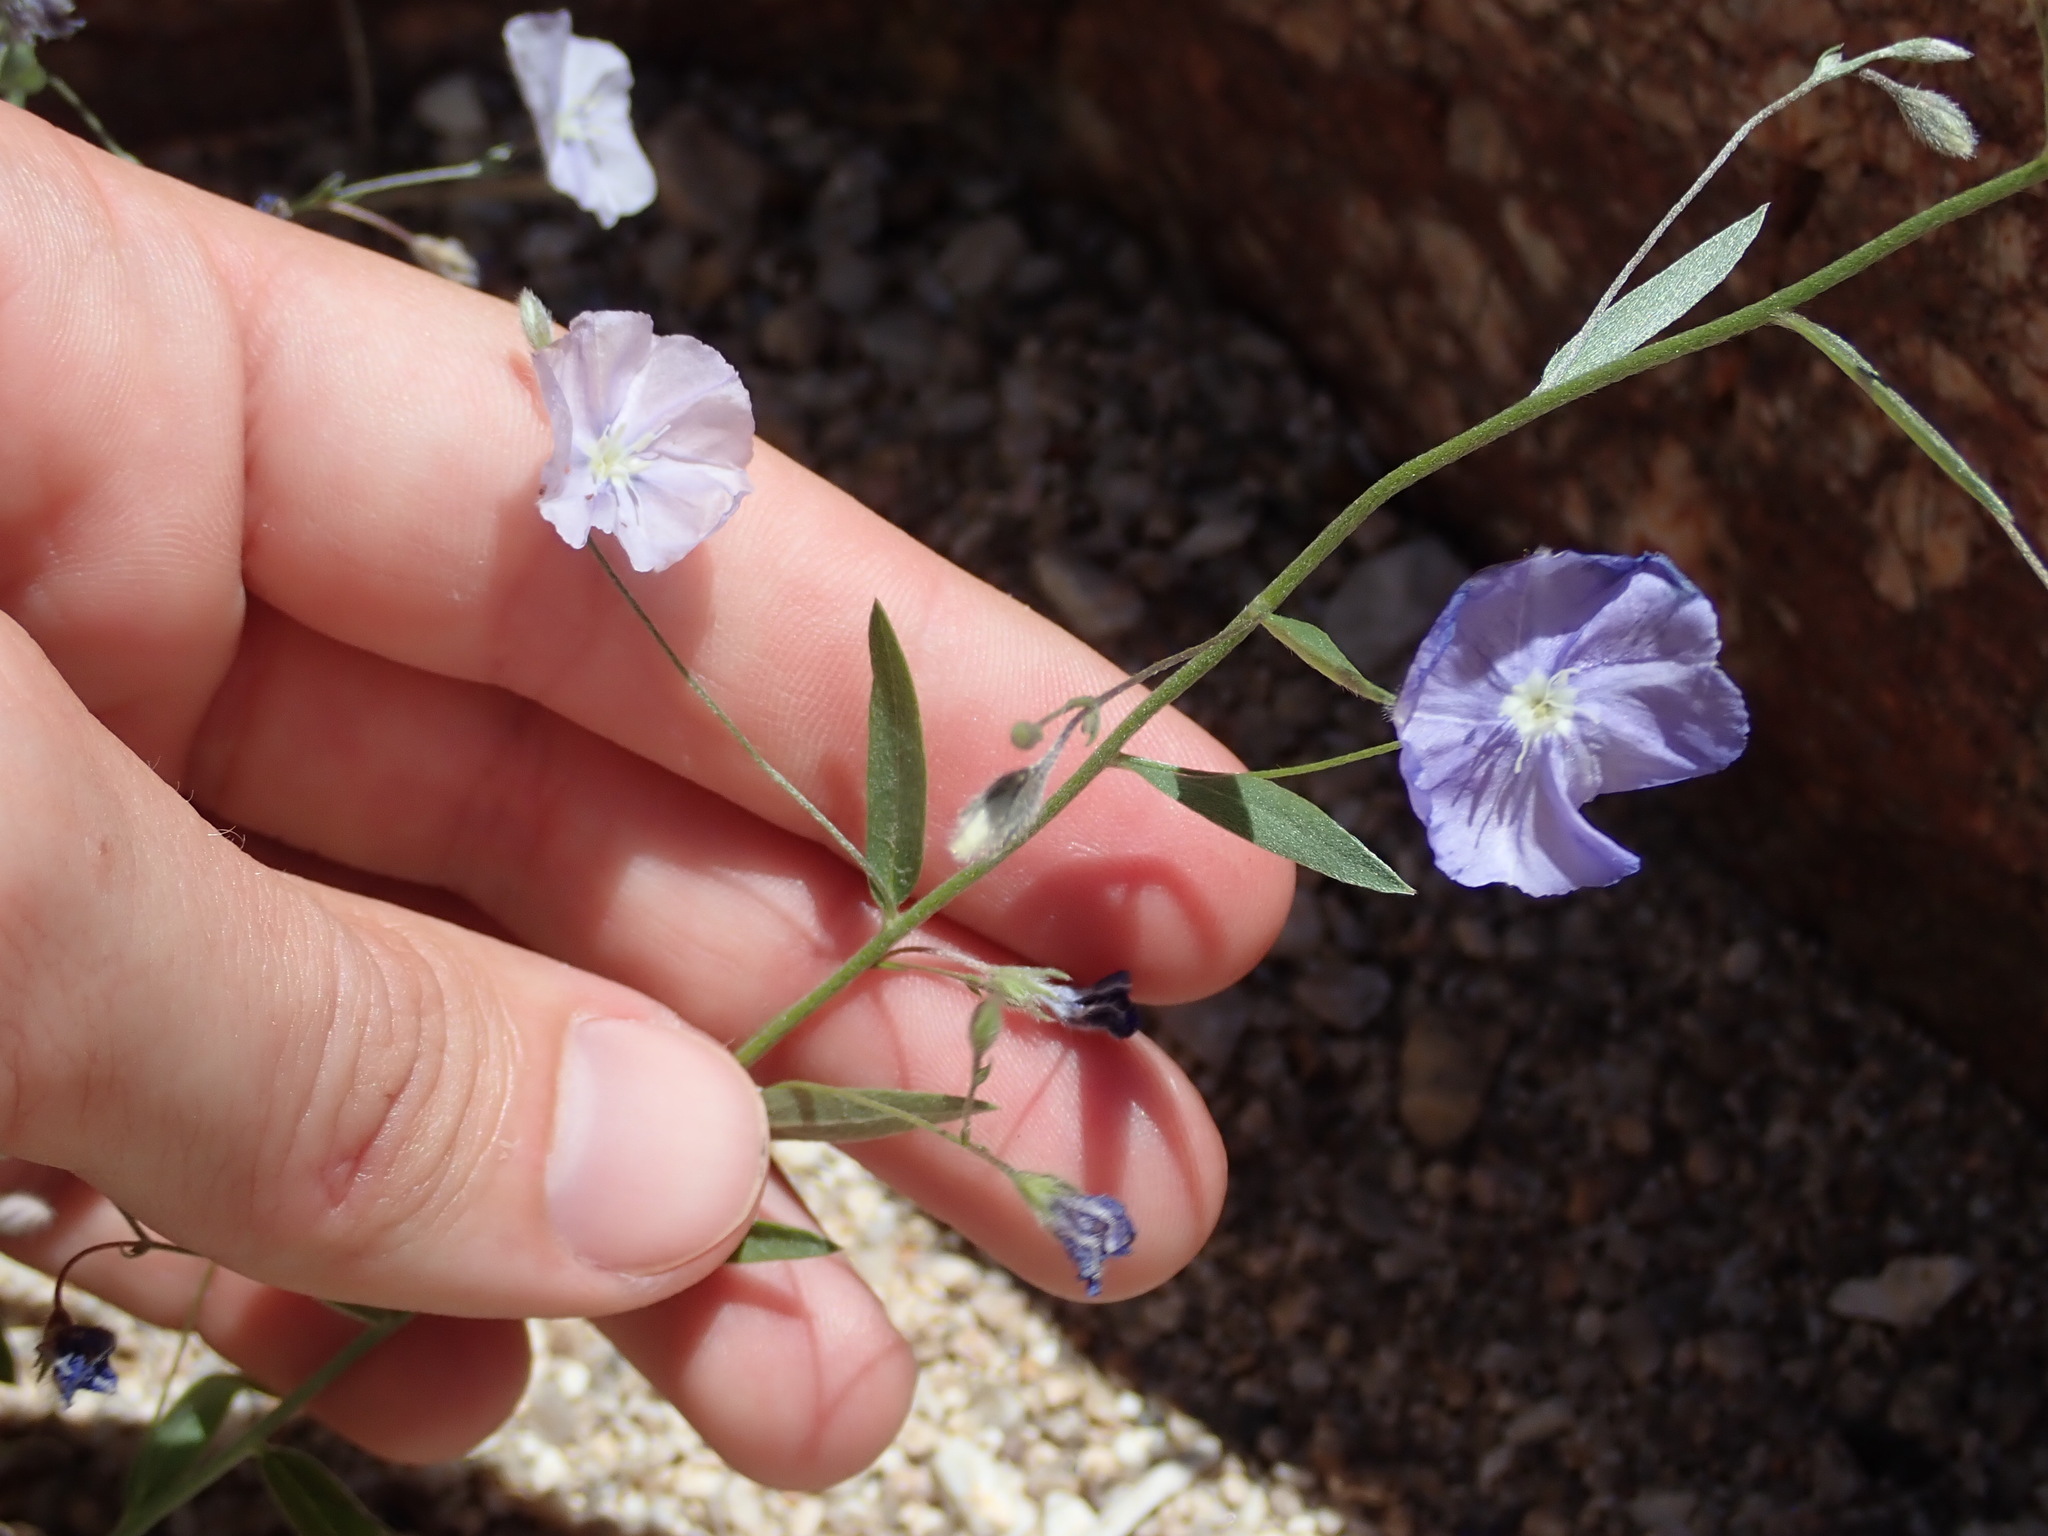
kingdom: Plantae
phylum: Tracheophyta
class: Magnoliopsida
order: Solanales
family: Convolvulaceae
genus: Evolvulus
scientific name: Evolvulus arizonicus
